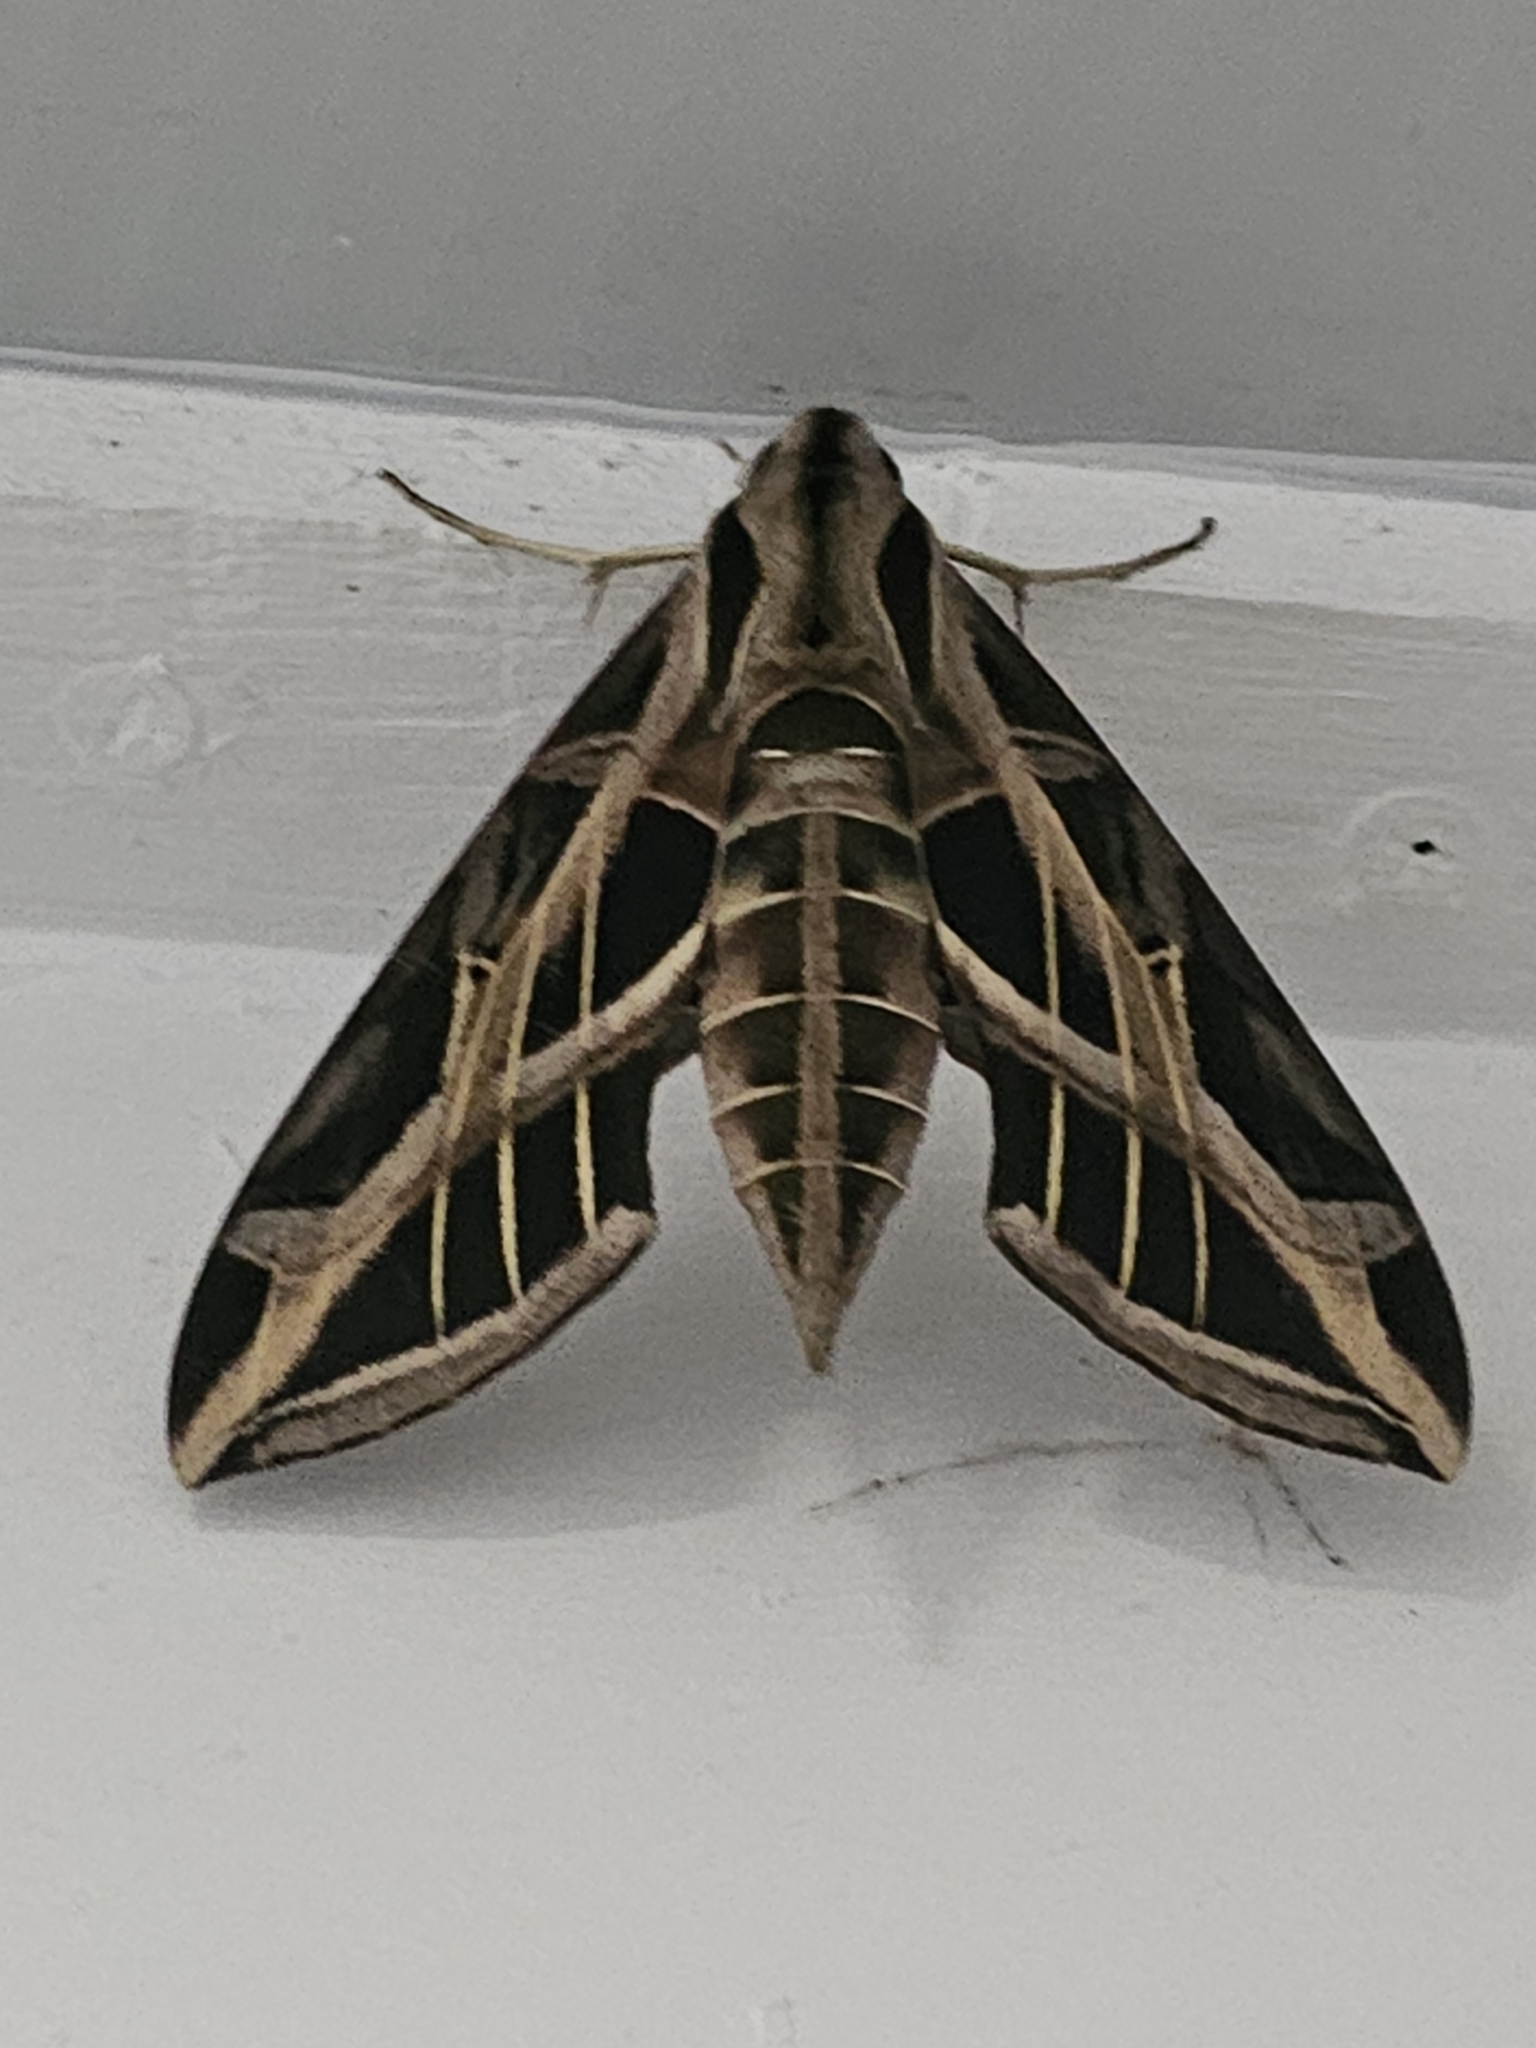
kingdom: Animalia
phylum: Arthropoda
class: Insecta
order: Lepidoptera
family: Sphingidae
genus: Eumorpha
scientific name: Eumorpha vitis
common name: Vine sphinx
